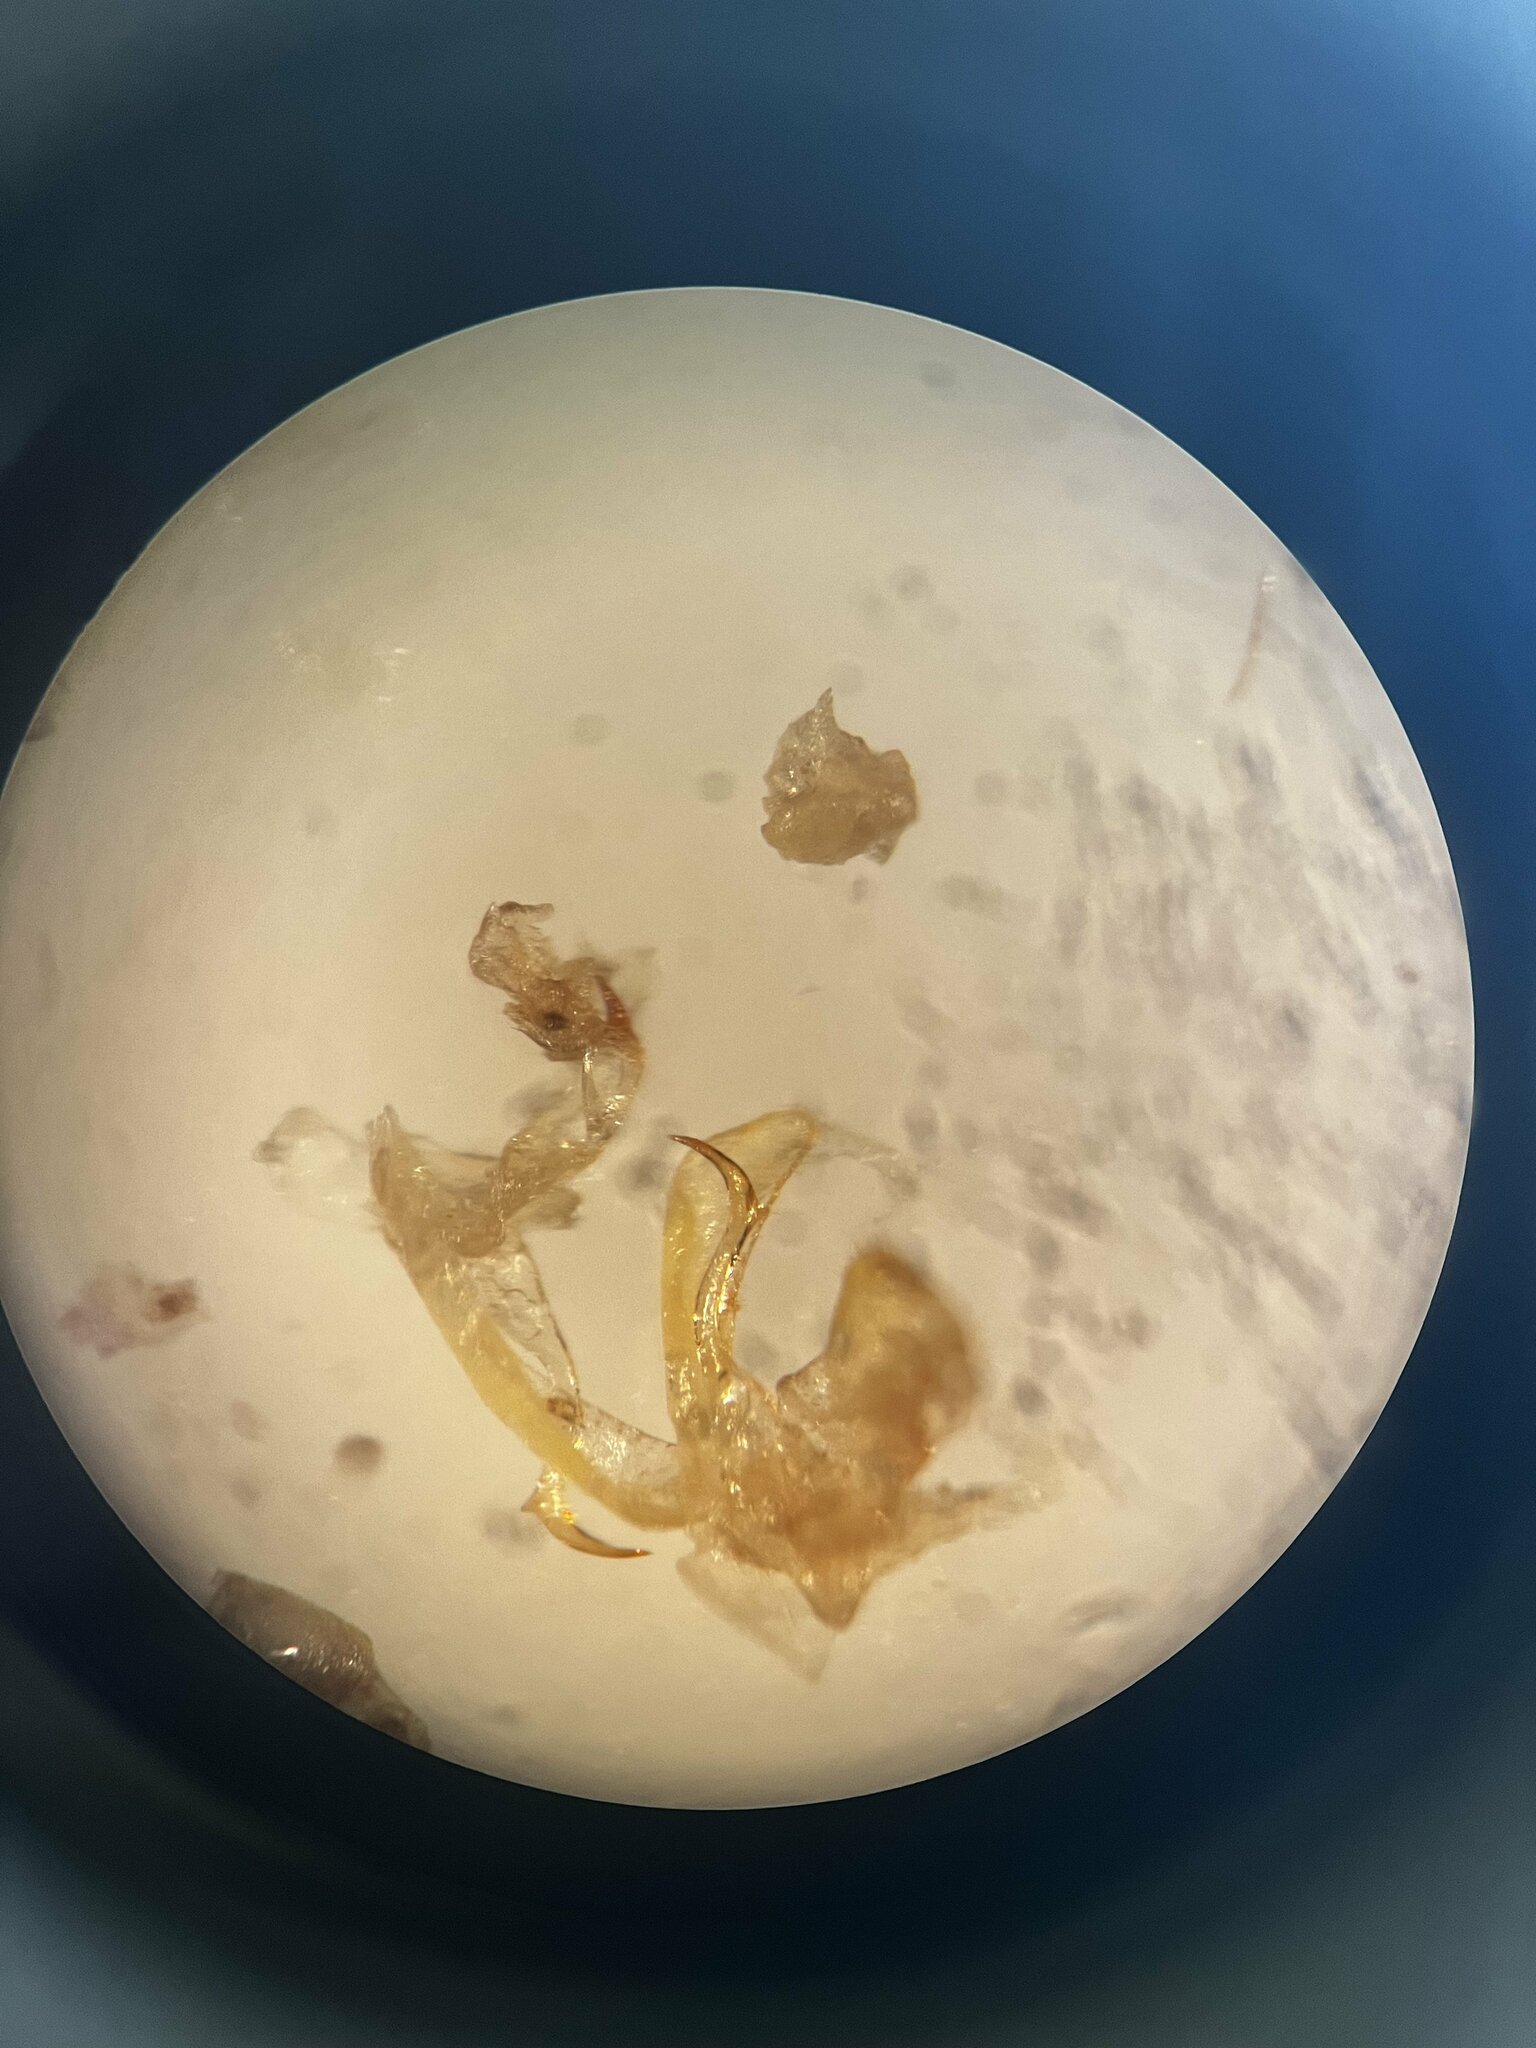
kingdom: Animalia
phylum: Arthropoda
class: Insecta
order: Hemiptera
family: Cicadellidae
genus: Fagocyba
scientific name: Fagocyba cruenta
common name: Leafhopper
